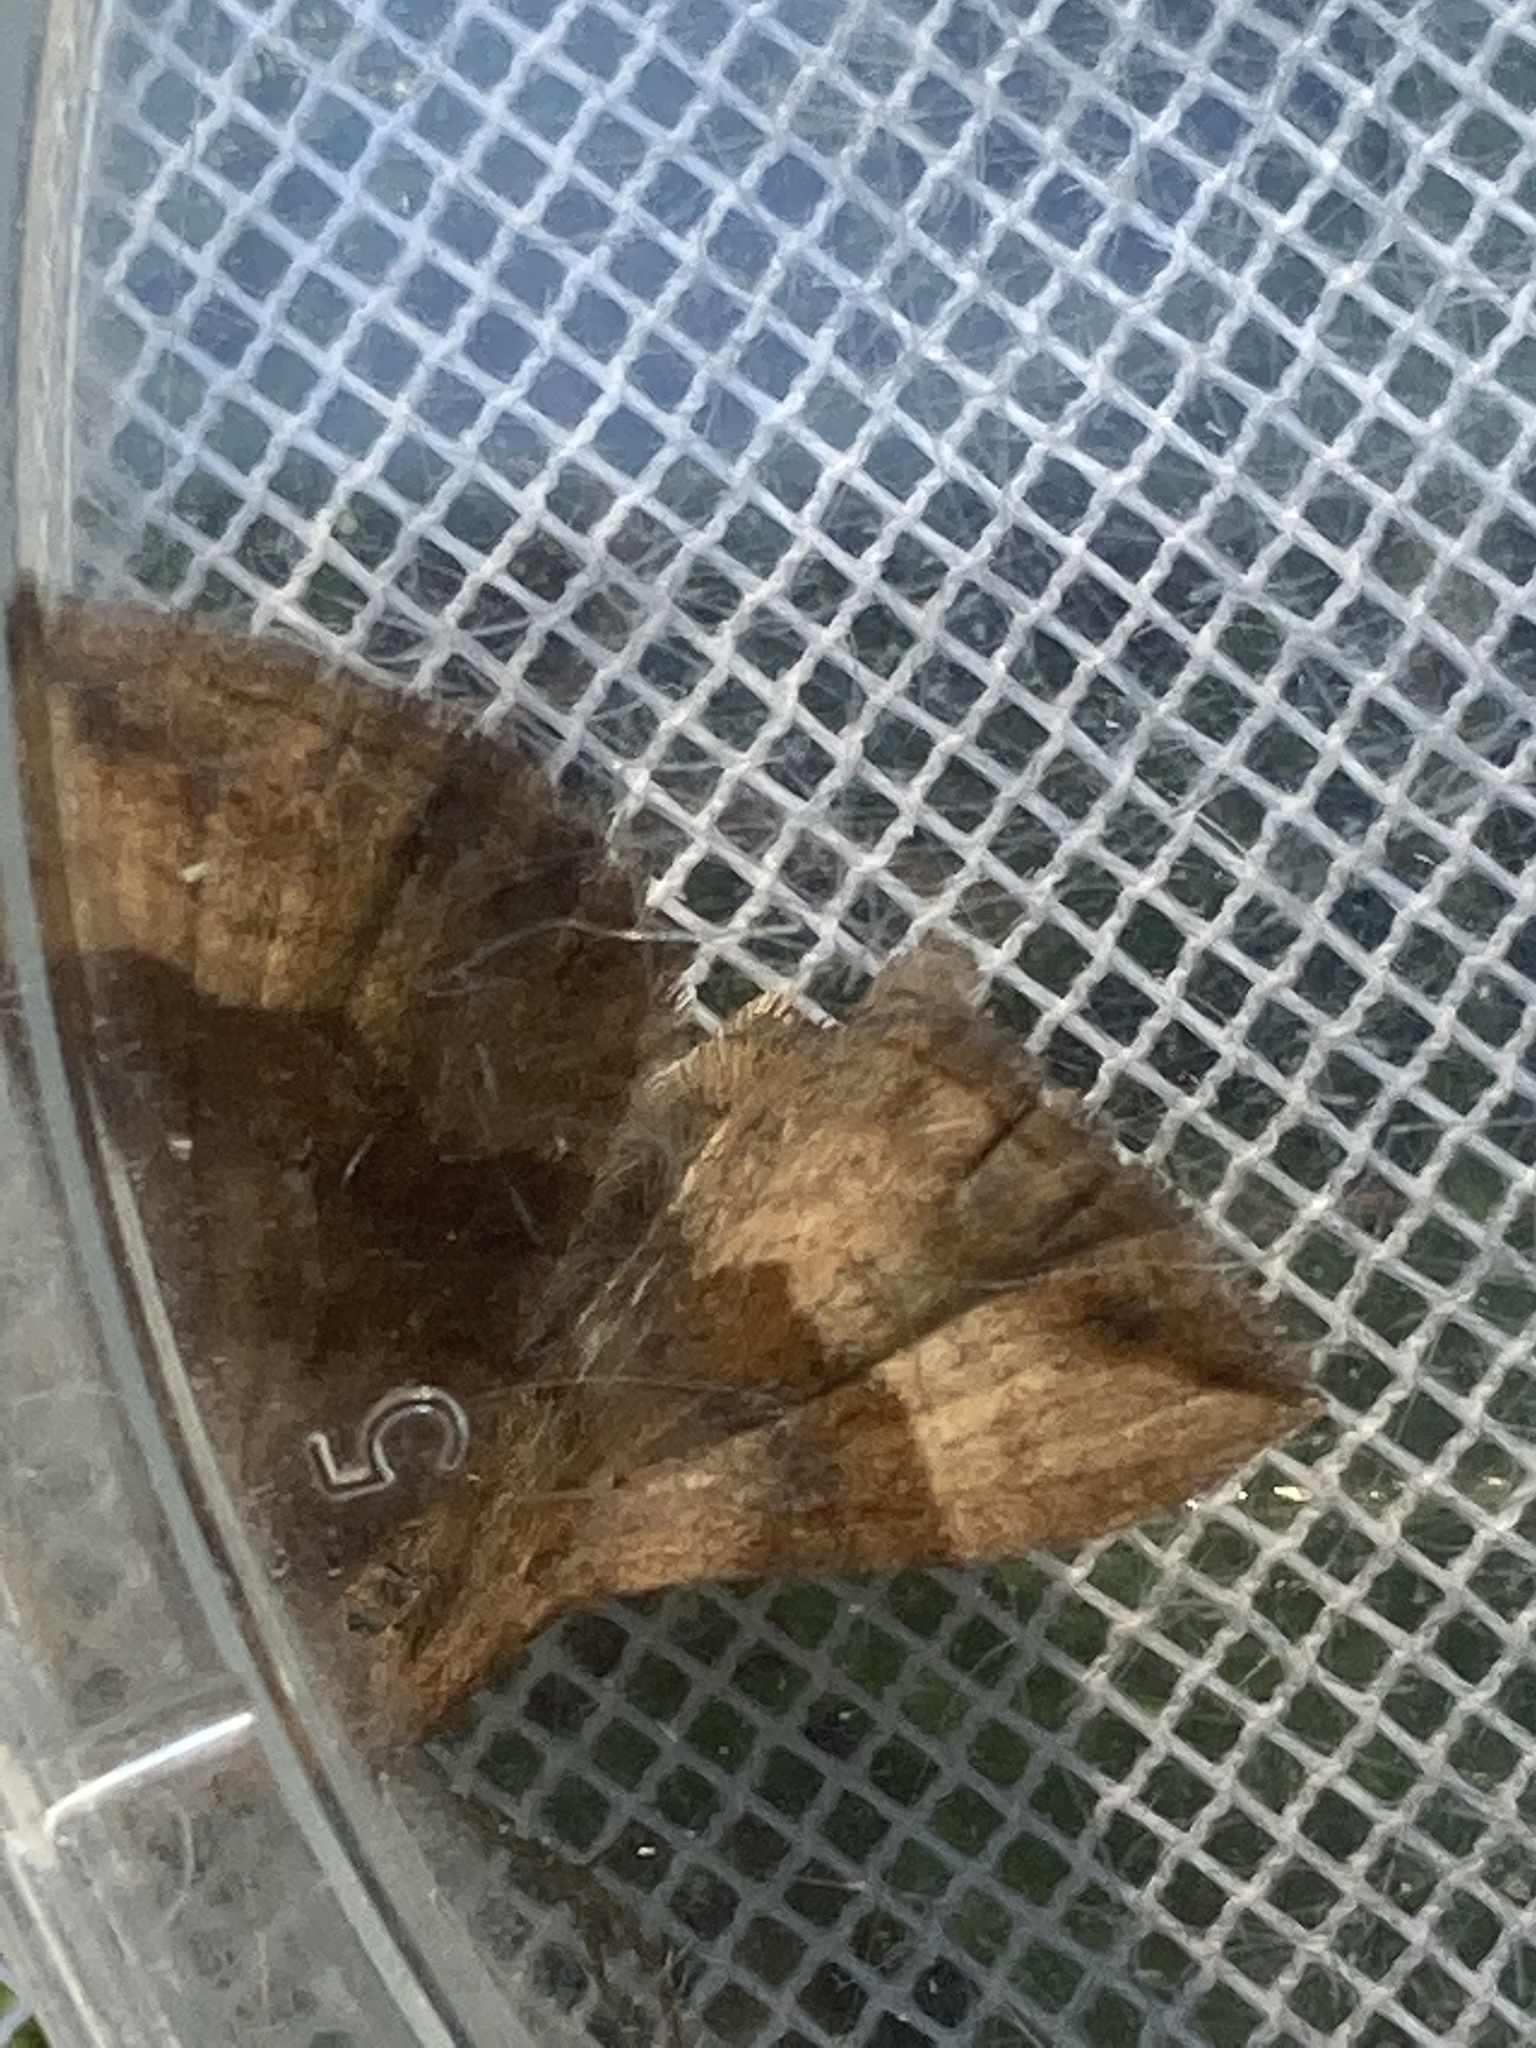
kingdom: Animalia
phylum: Arthropoda
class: Insecta
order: Lepidoptera
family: Geometridae
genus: Scotopteryx
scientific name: Scotopteryx chenopodiata
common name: Shaded broad-bar
